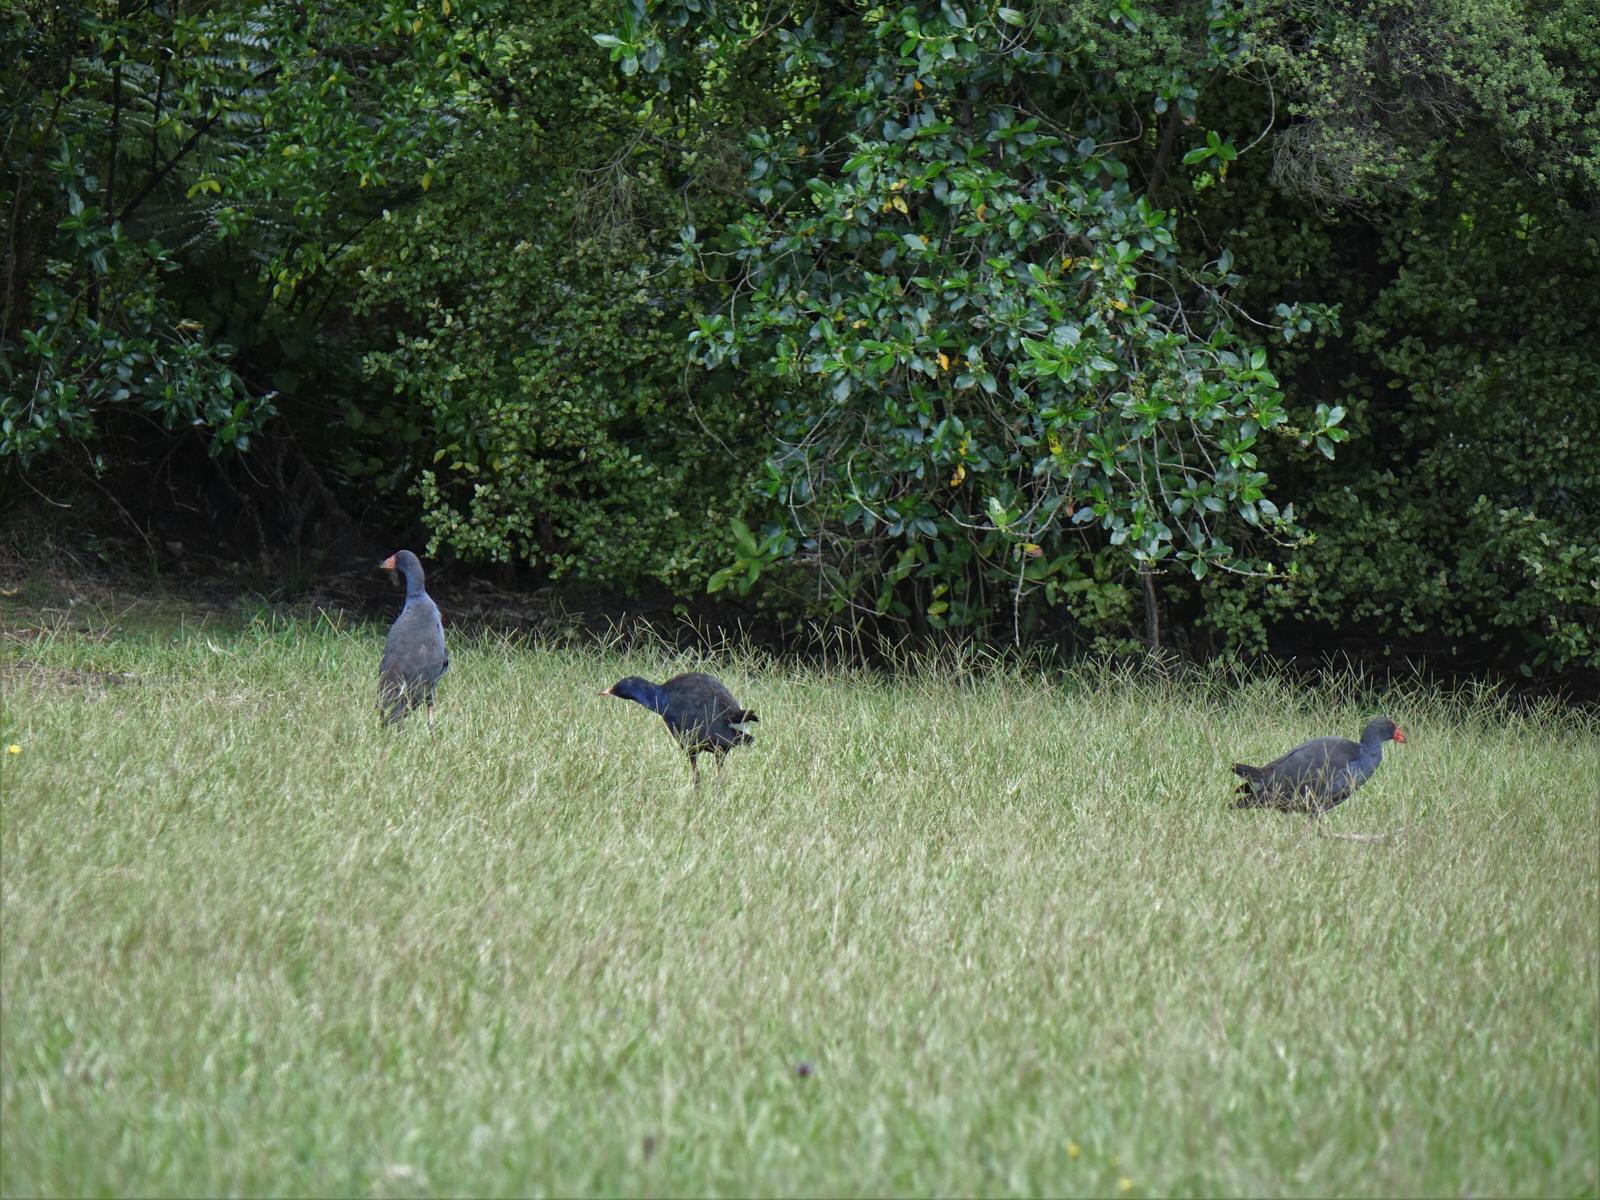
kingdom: Animalia
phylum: Chordata
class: Aves
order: Gruiformes
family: Rallidae
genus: Porphyrio
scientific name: Porphyrio melanotus
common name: Australasian swamphen
